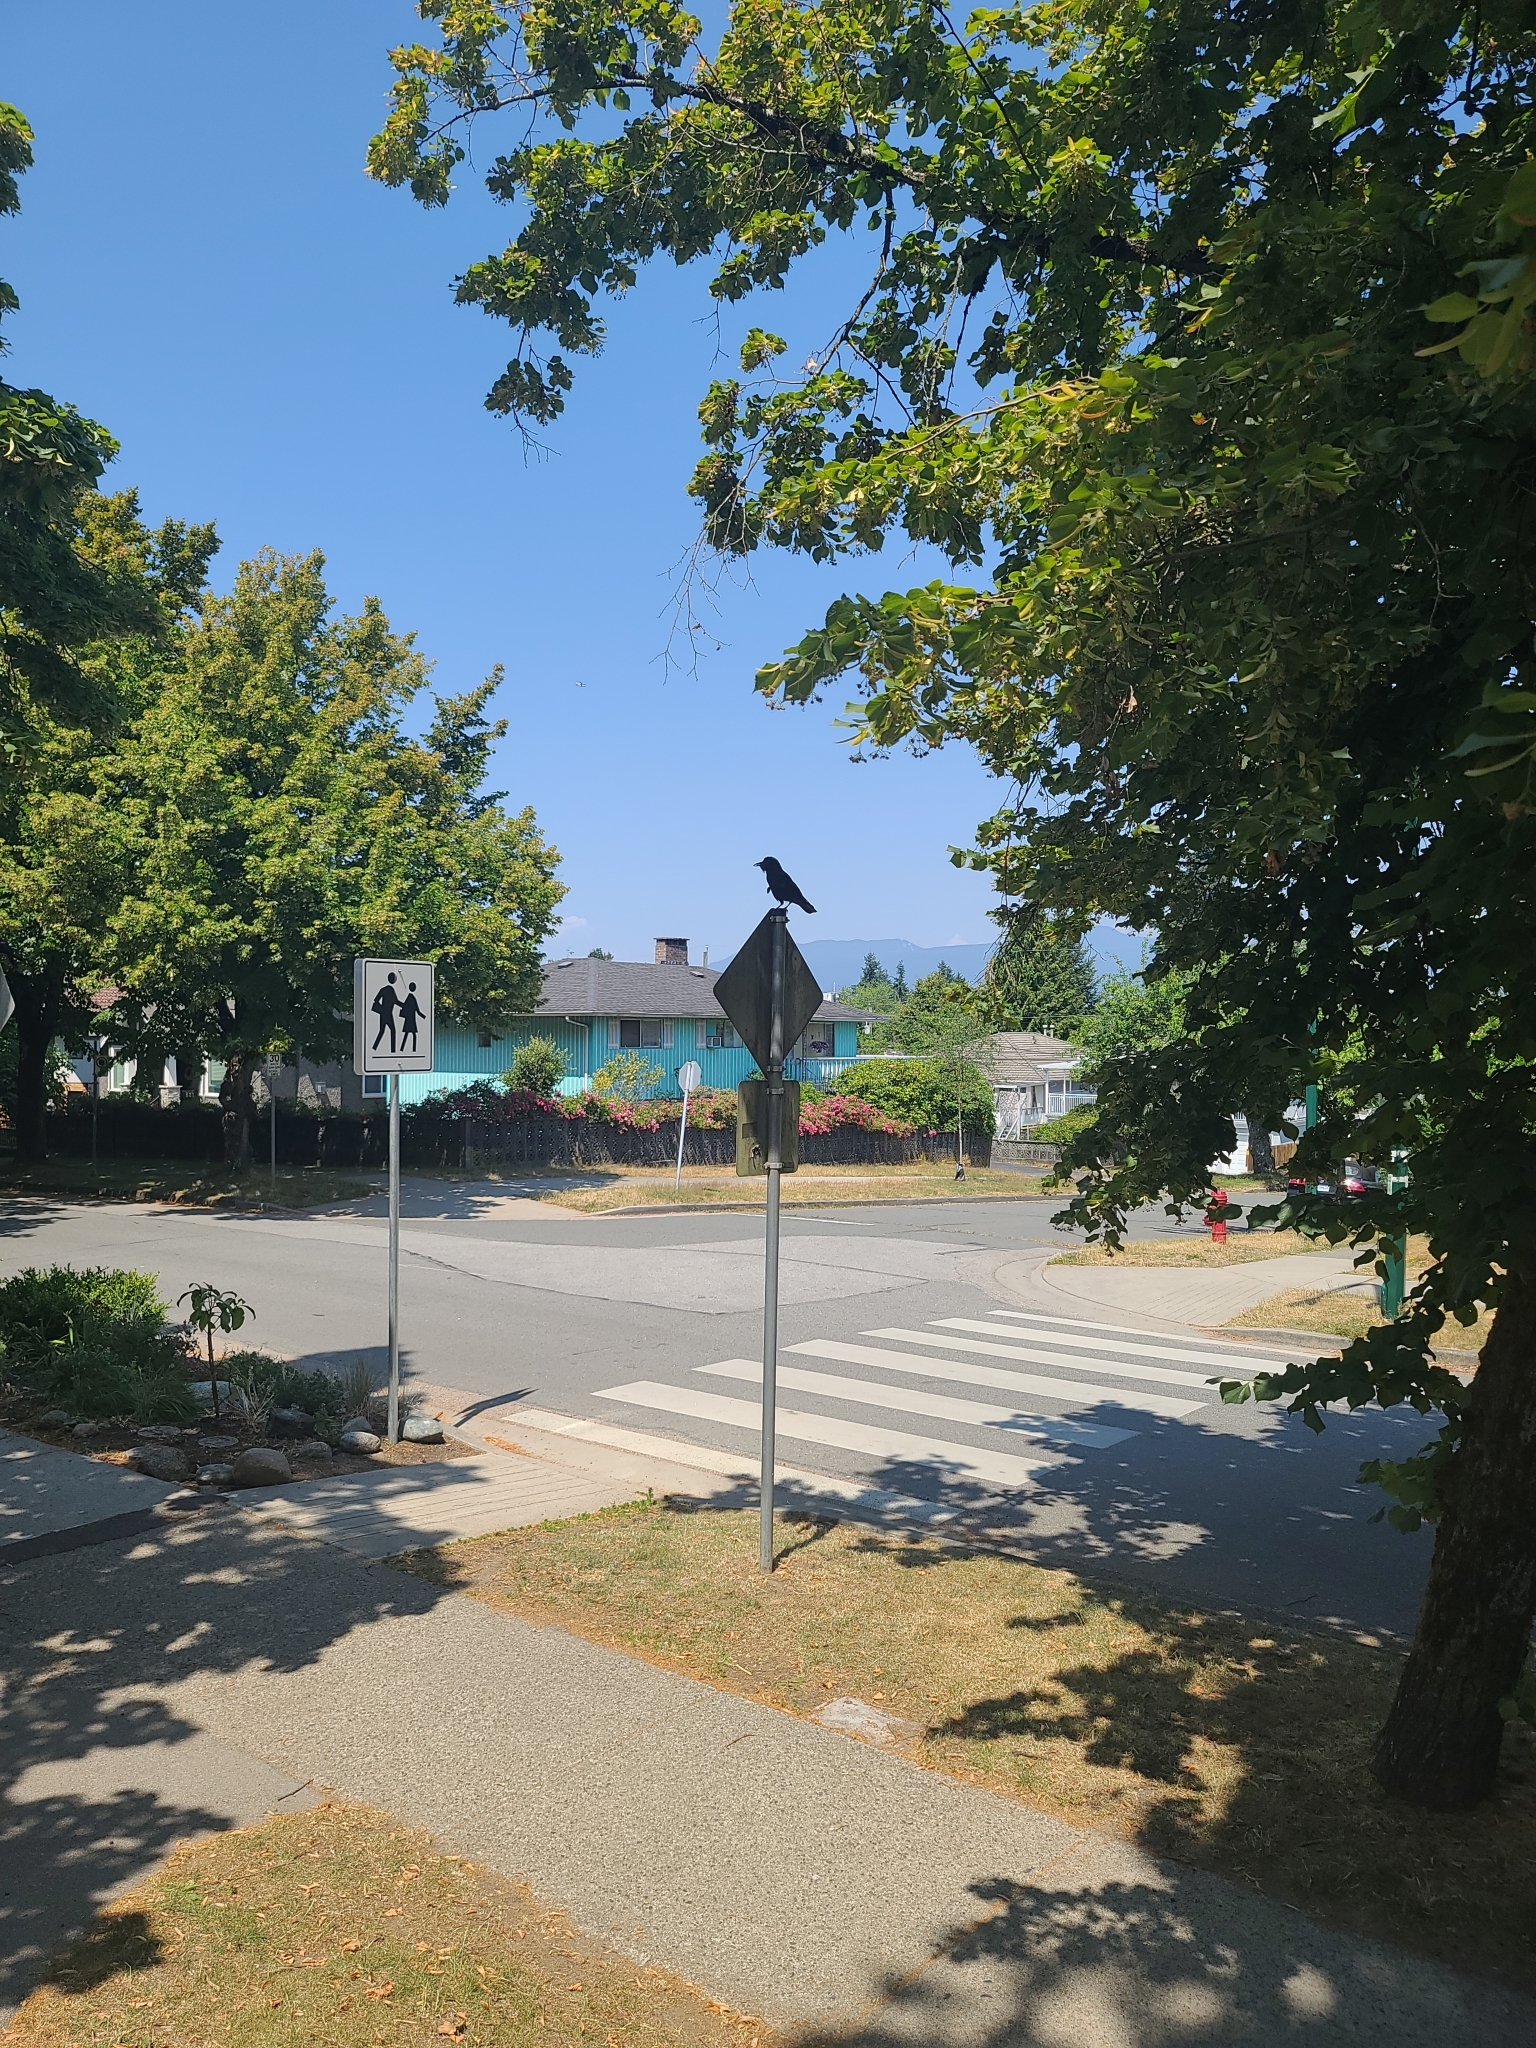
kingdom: Animalia
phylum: Chordata
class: Aves
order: Passeriformes
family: Corvidae
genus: Corvus
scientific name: Corvus brachyrhynchos
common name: American crow
